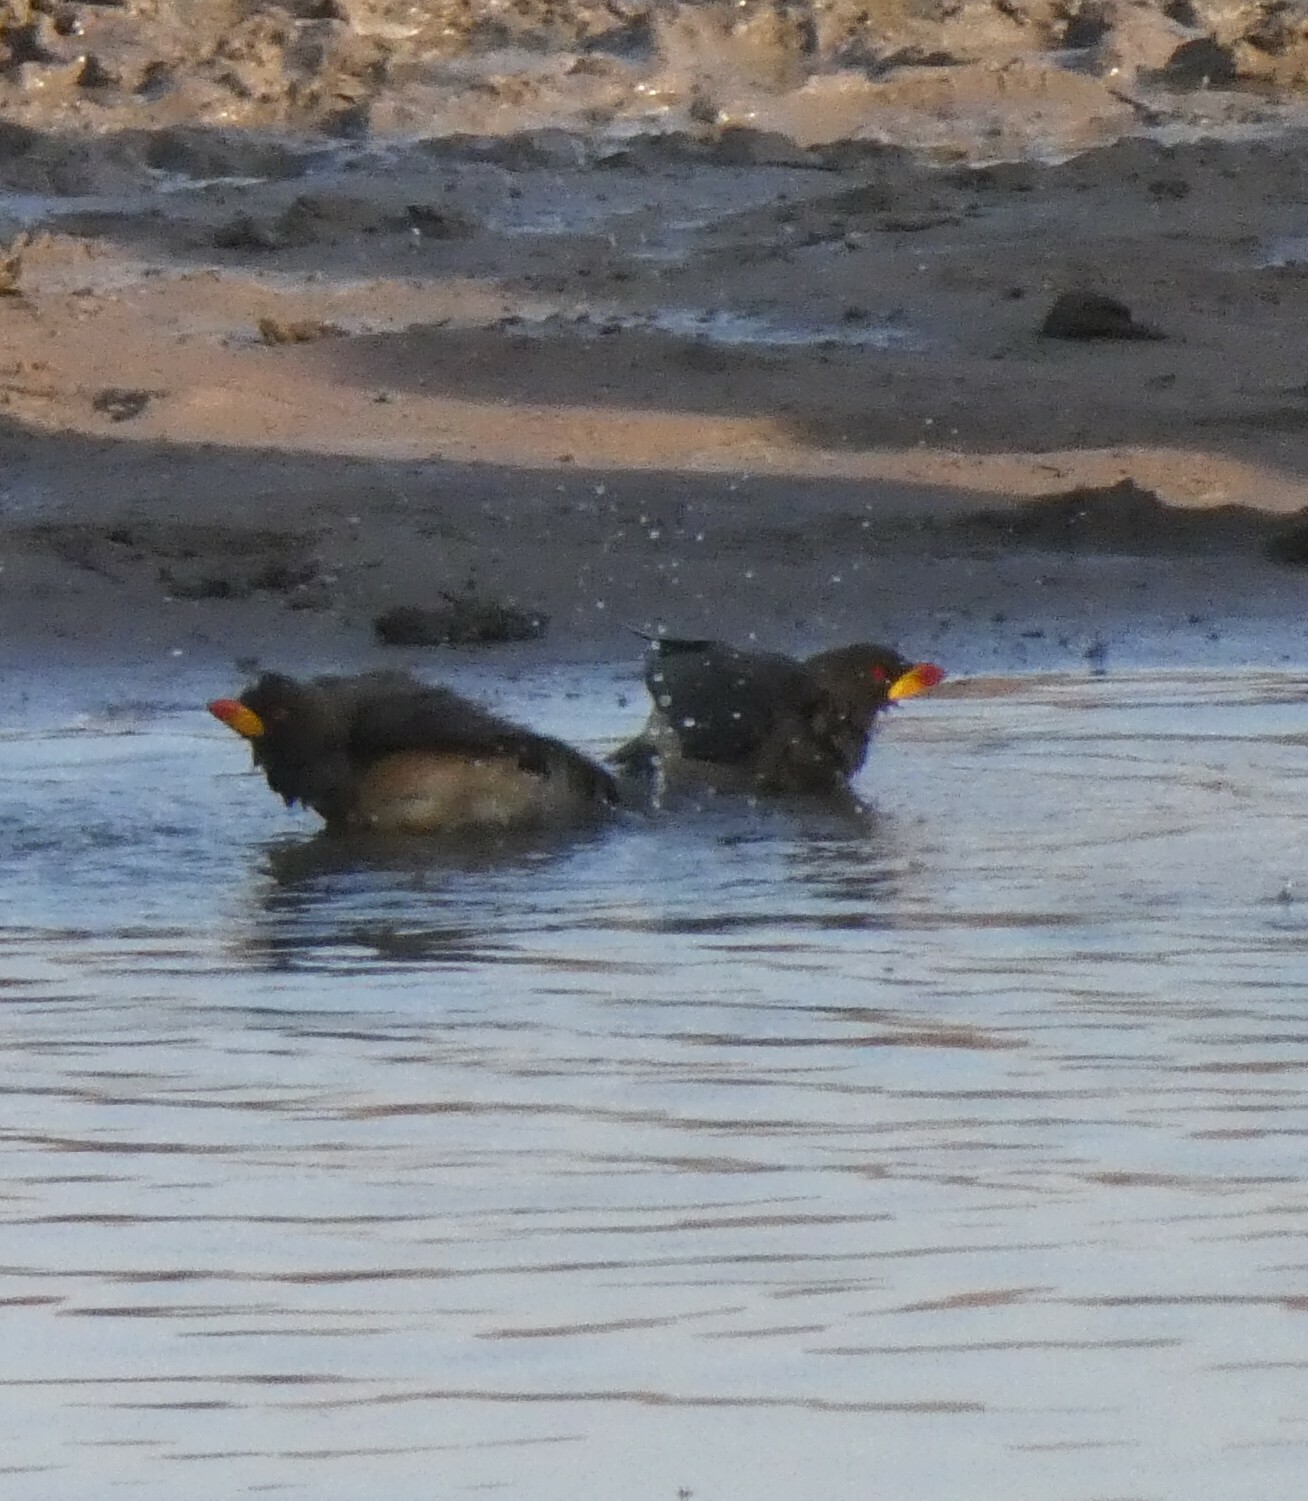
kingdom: Animalia
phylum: Chordata
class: Aves
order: Passeriformes
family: Buphagidae
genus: Buphagus
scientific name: Buphagus africanus
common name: Yellow-billed oxpecker
